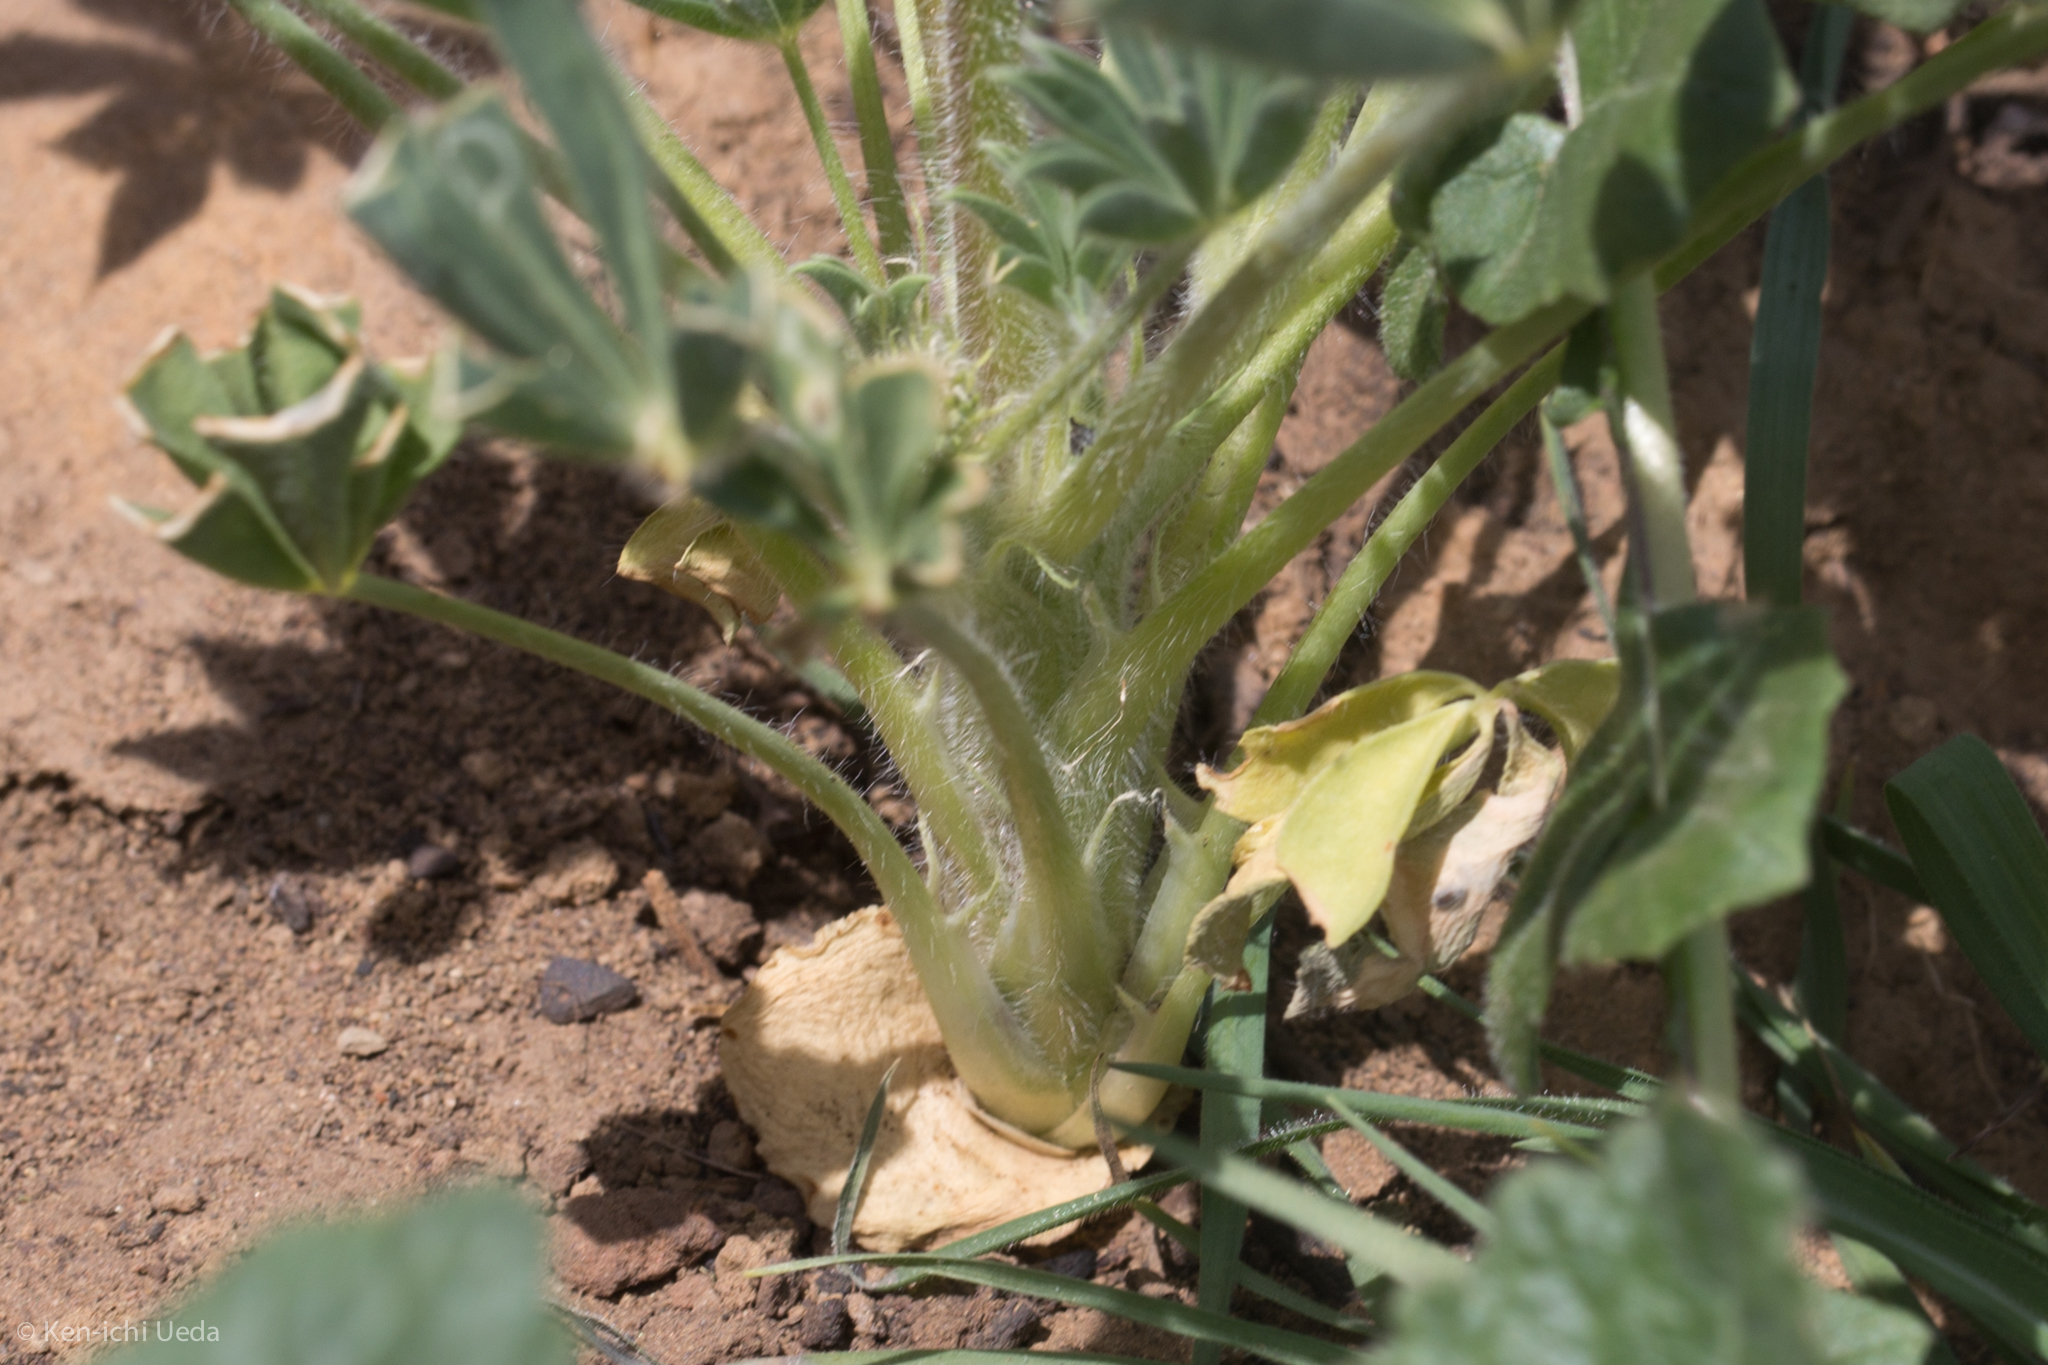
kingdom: Plantae
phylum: Tracheophyta
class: Magnoliopsida
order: Fabales
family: Fabaceae
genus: Lupinus
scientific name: Lupinus microcarpus
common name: Chick lupine
